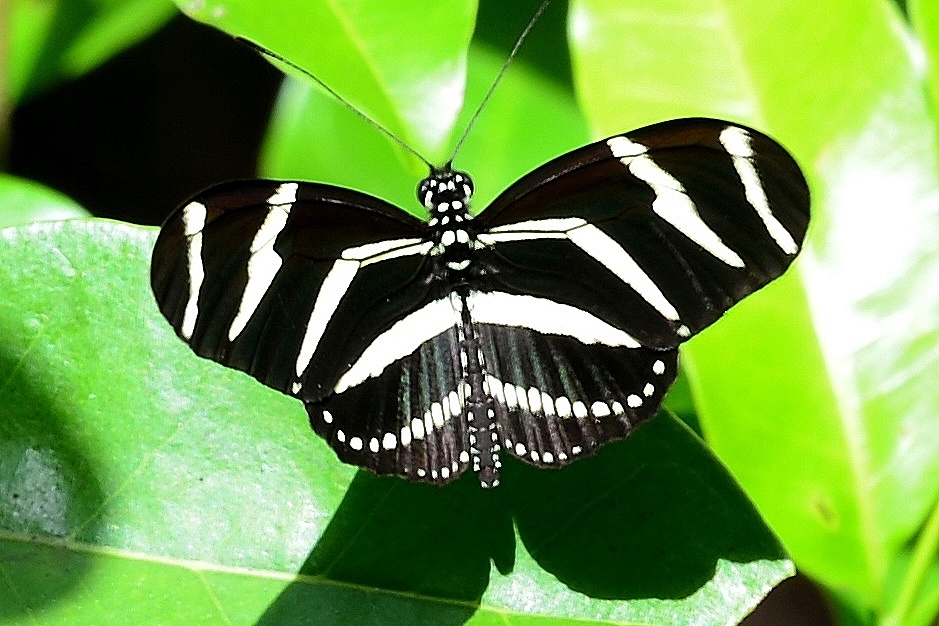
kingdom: Animalia
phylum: Arthropoda
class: Insecta
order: Lepidoptera
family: Nymphalidae
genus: Heliconius
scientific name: Heliconius charithonia
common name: Zebra long wing
